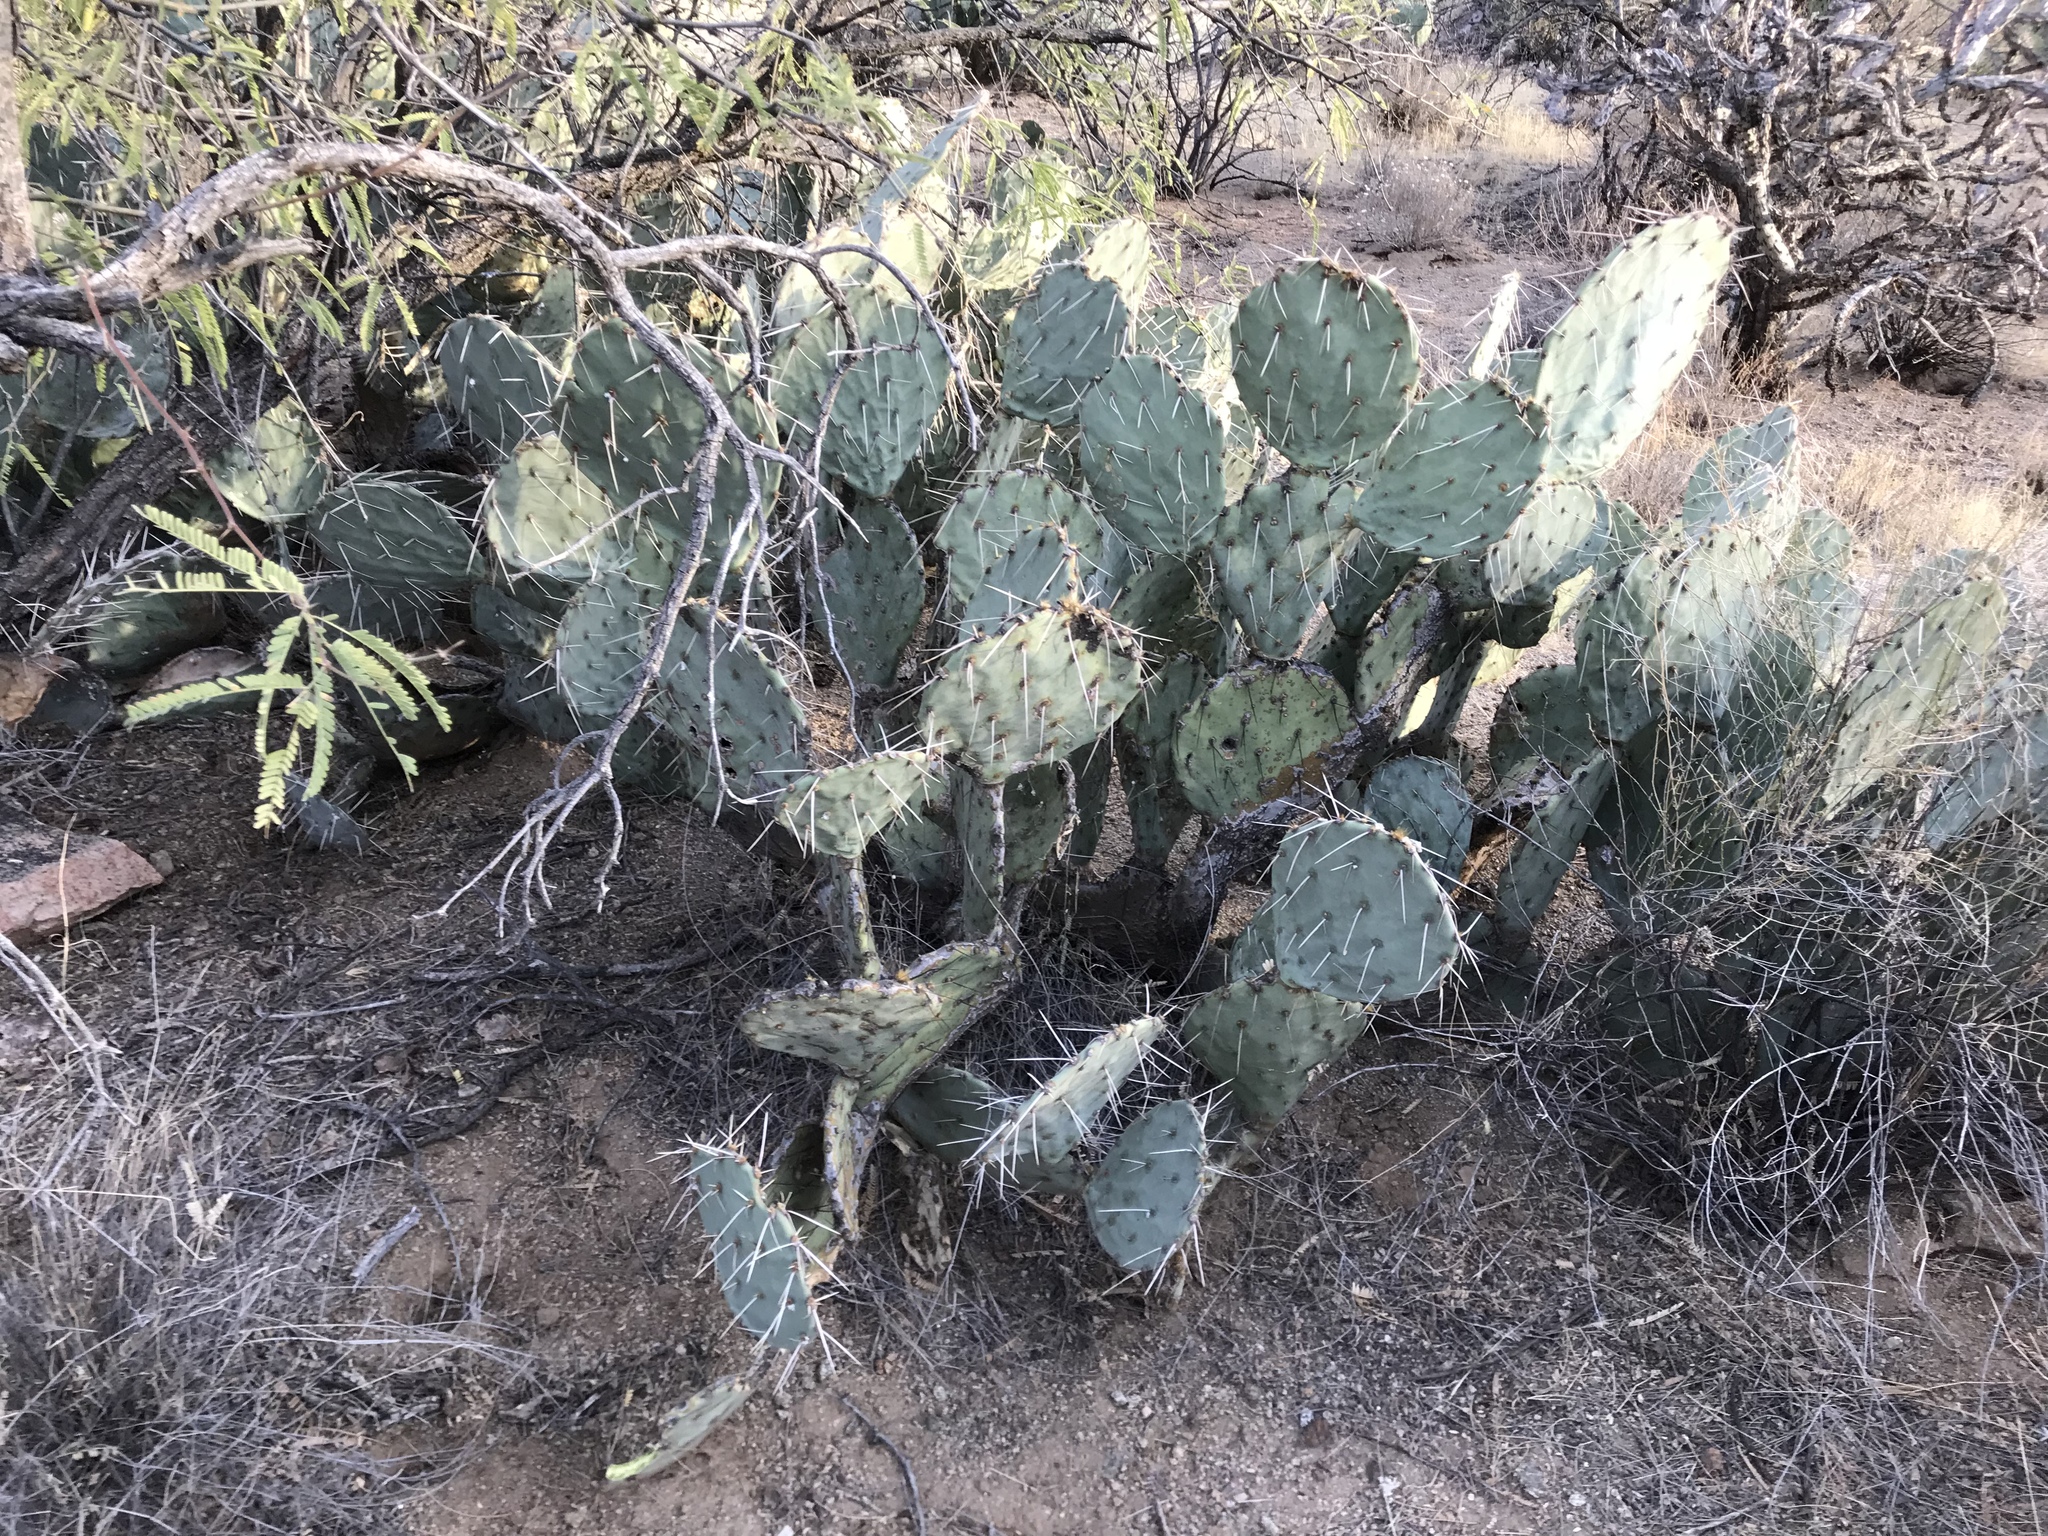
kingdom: Plantae
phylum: Tracheophyta
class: Magnoliopsida
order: Caryophyllales
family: Cactaceae
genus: Opuntia
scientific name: Opuntia engelmannii
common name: Cactus-apple
